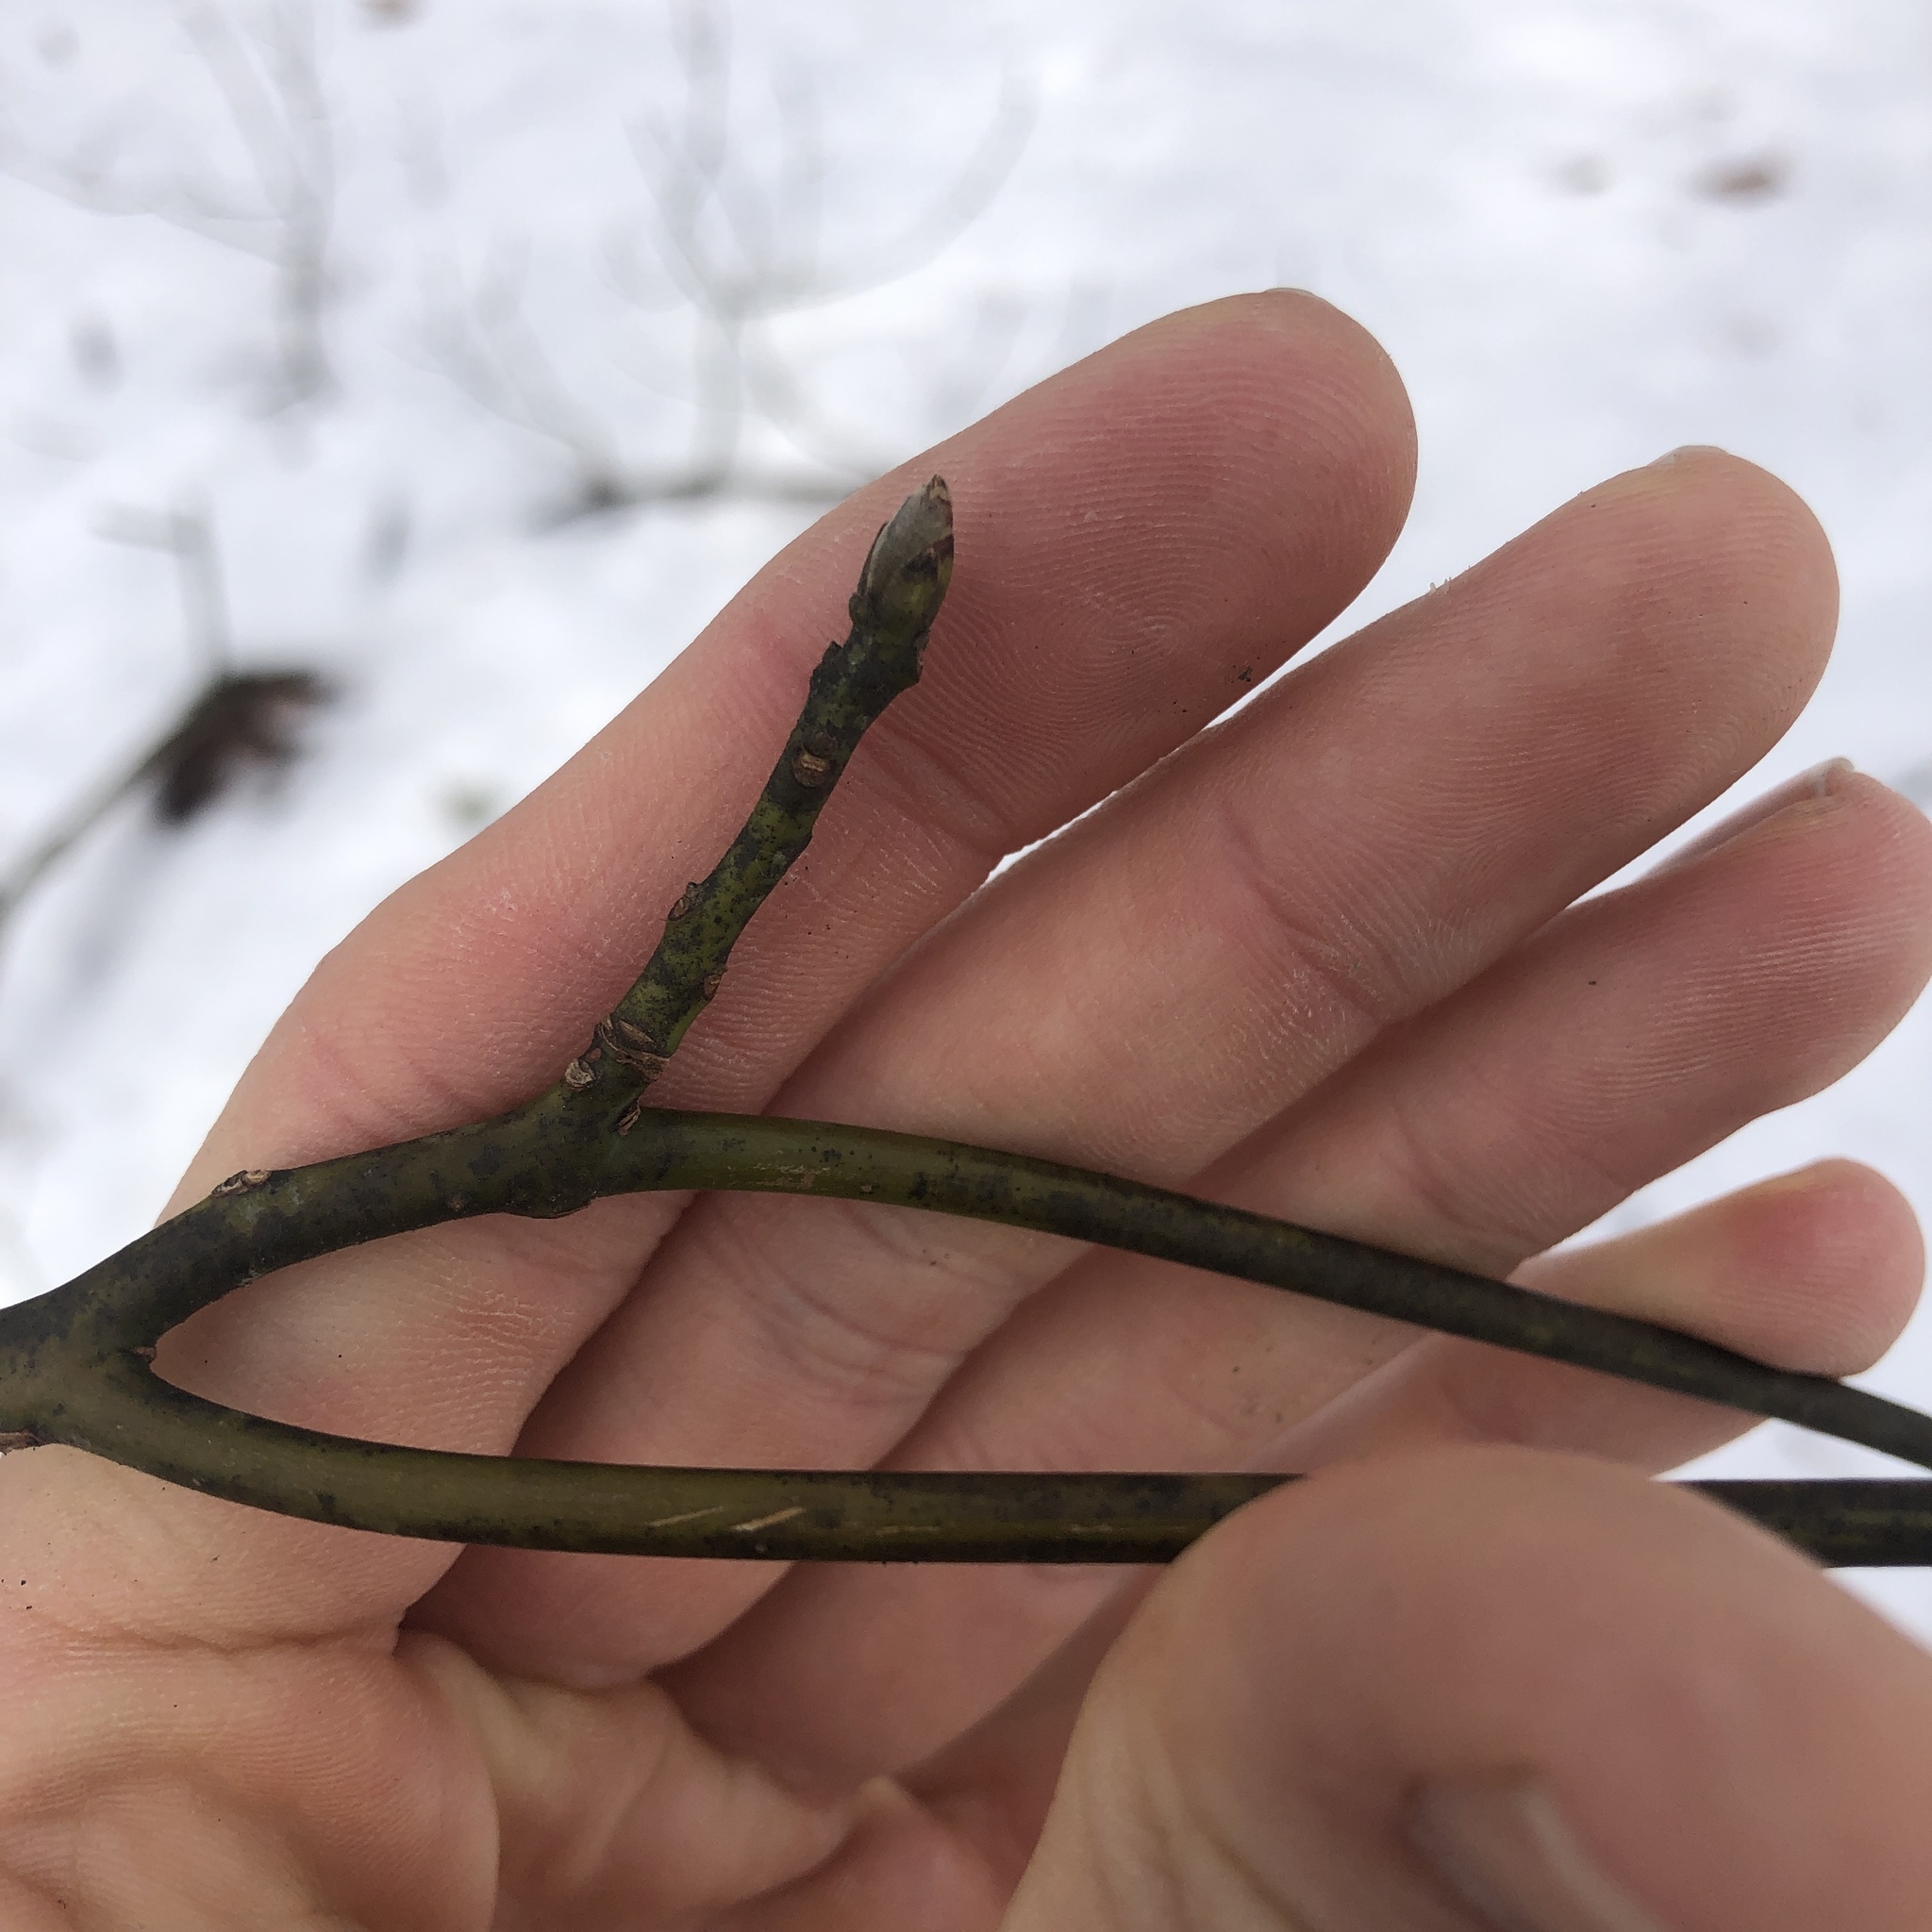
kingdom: Plantae
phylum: Tracheophyta
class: Magnoliopsida
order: Laurales
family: Lauraceae
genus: Sassafras
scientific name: Sassafras albidum
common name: Sassafras
